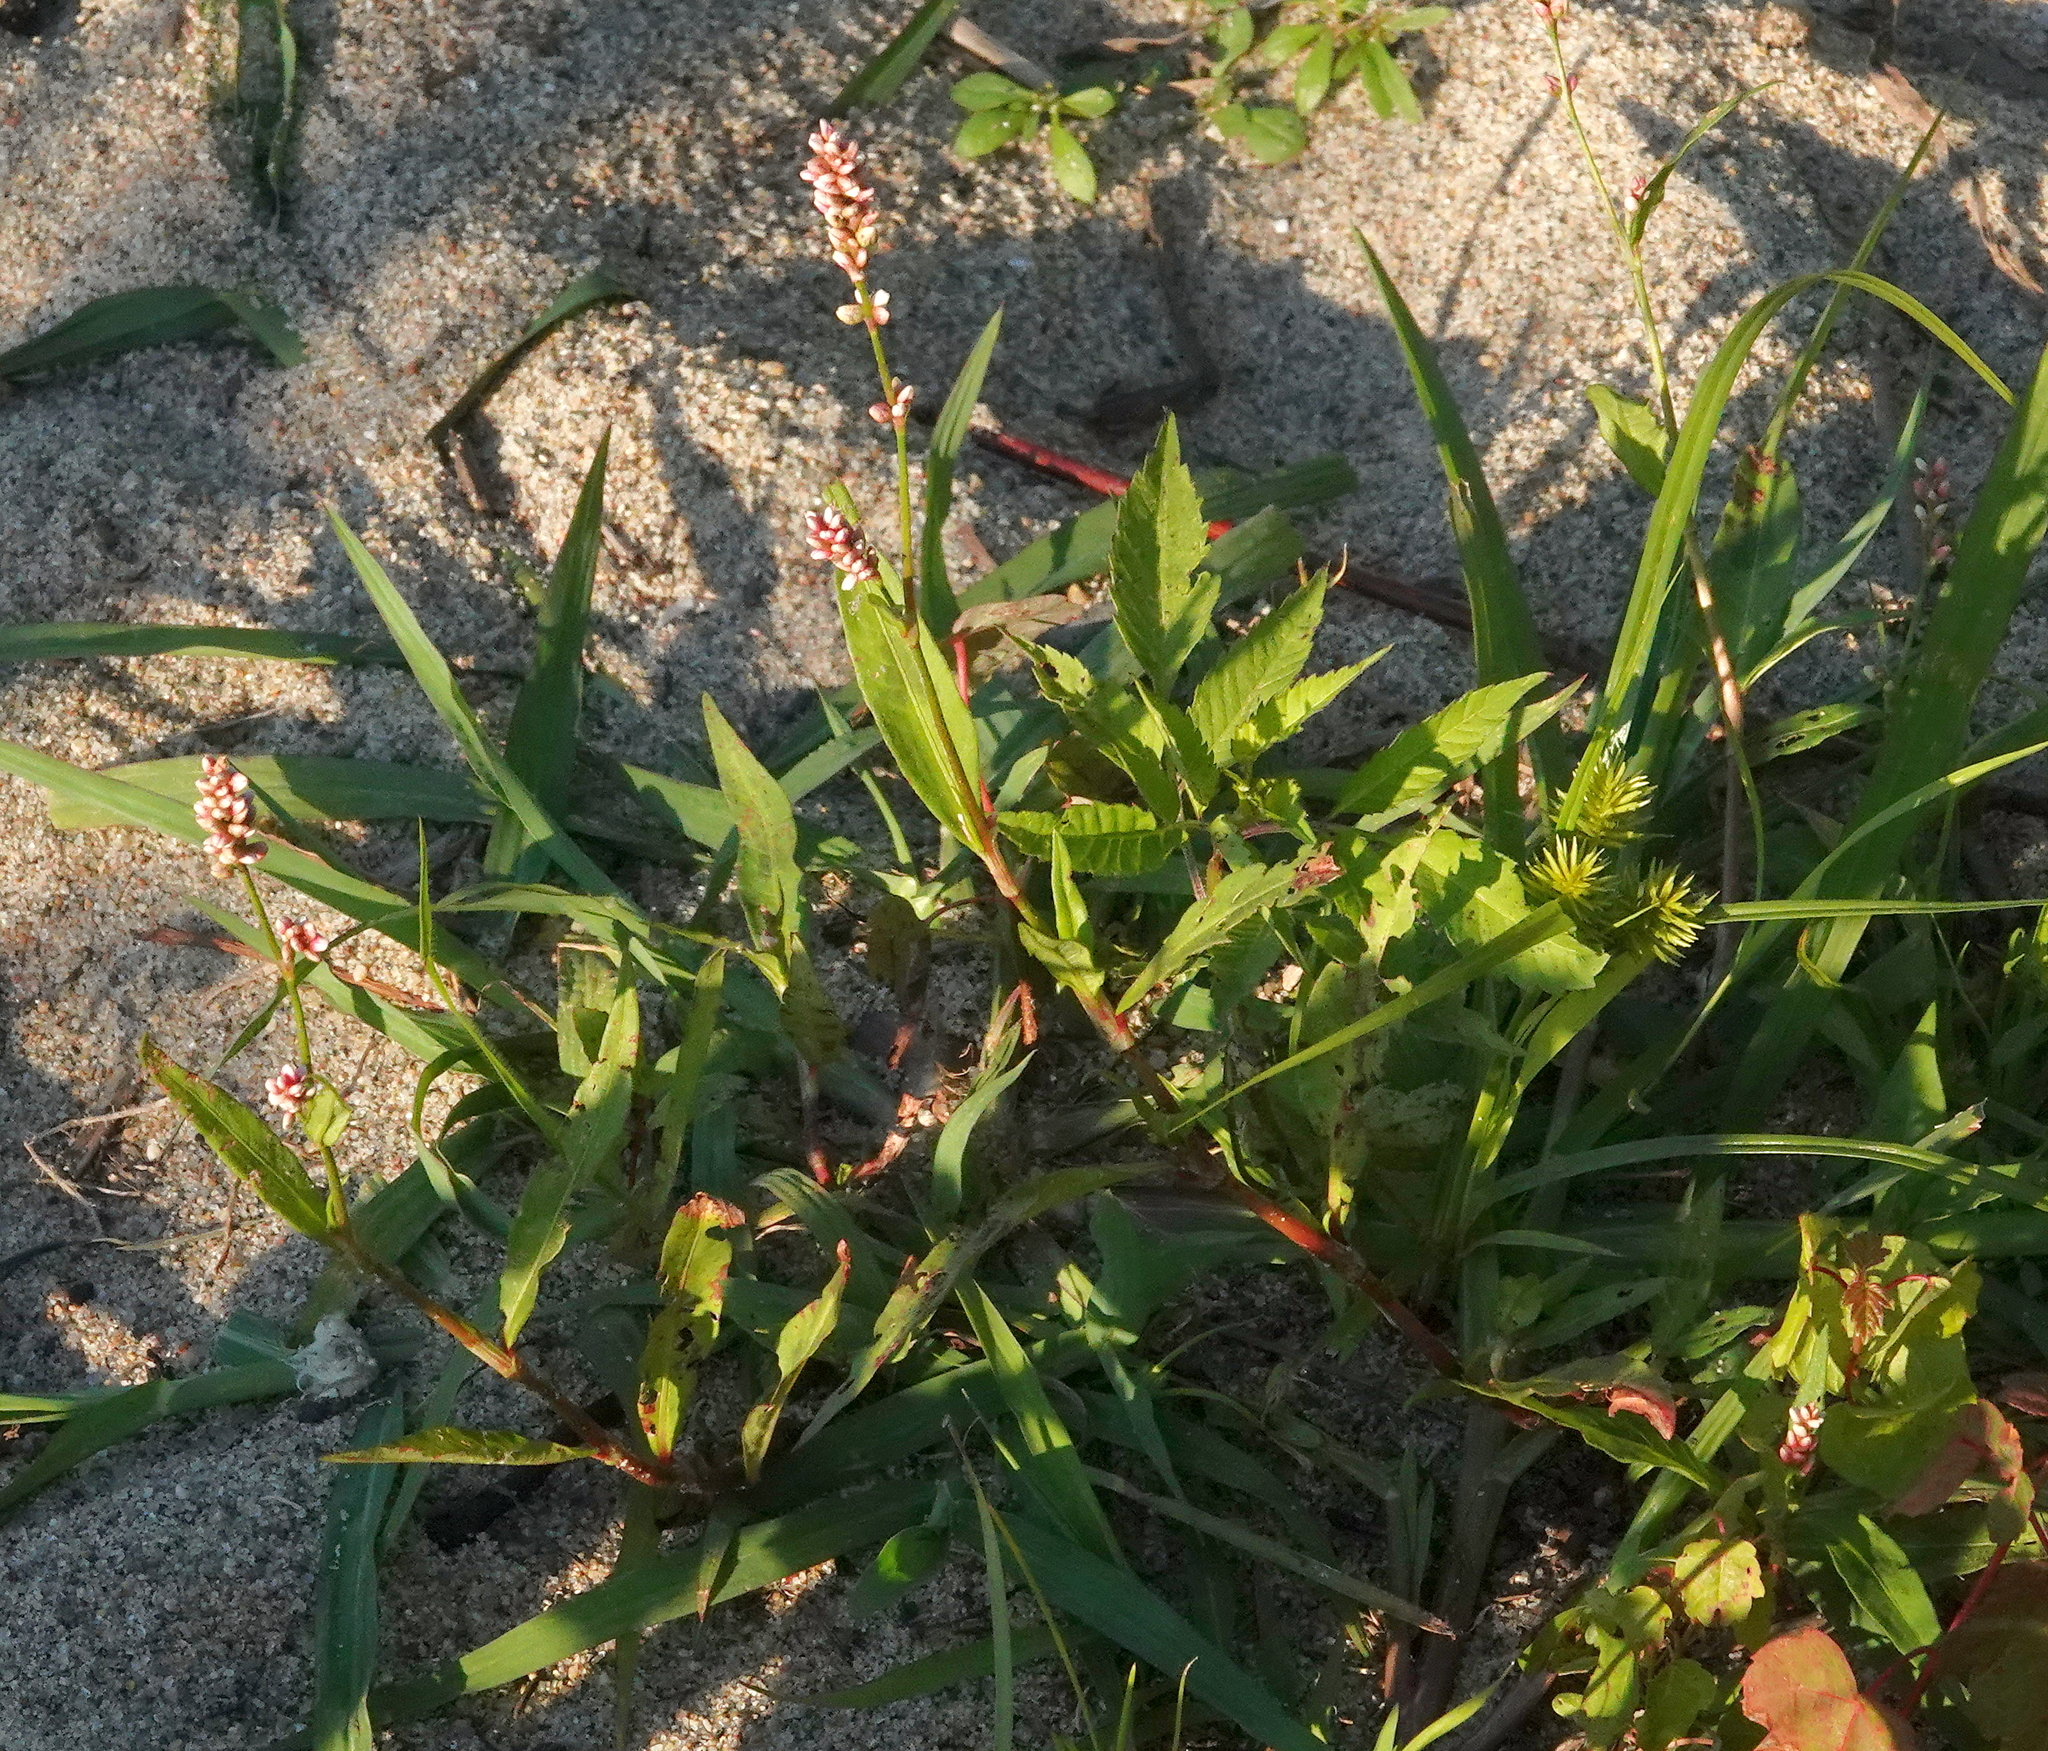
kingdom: Plantae
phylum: Tracheophyta
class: Magnoliopsida
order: Caryophyllales
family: Polygonaceae
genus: Persicaria
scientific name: Persicaria maculosa
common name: Redshank
